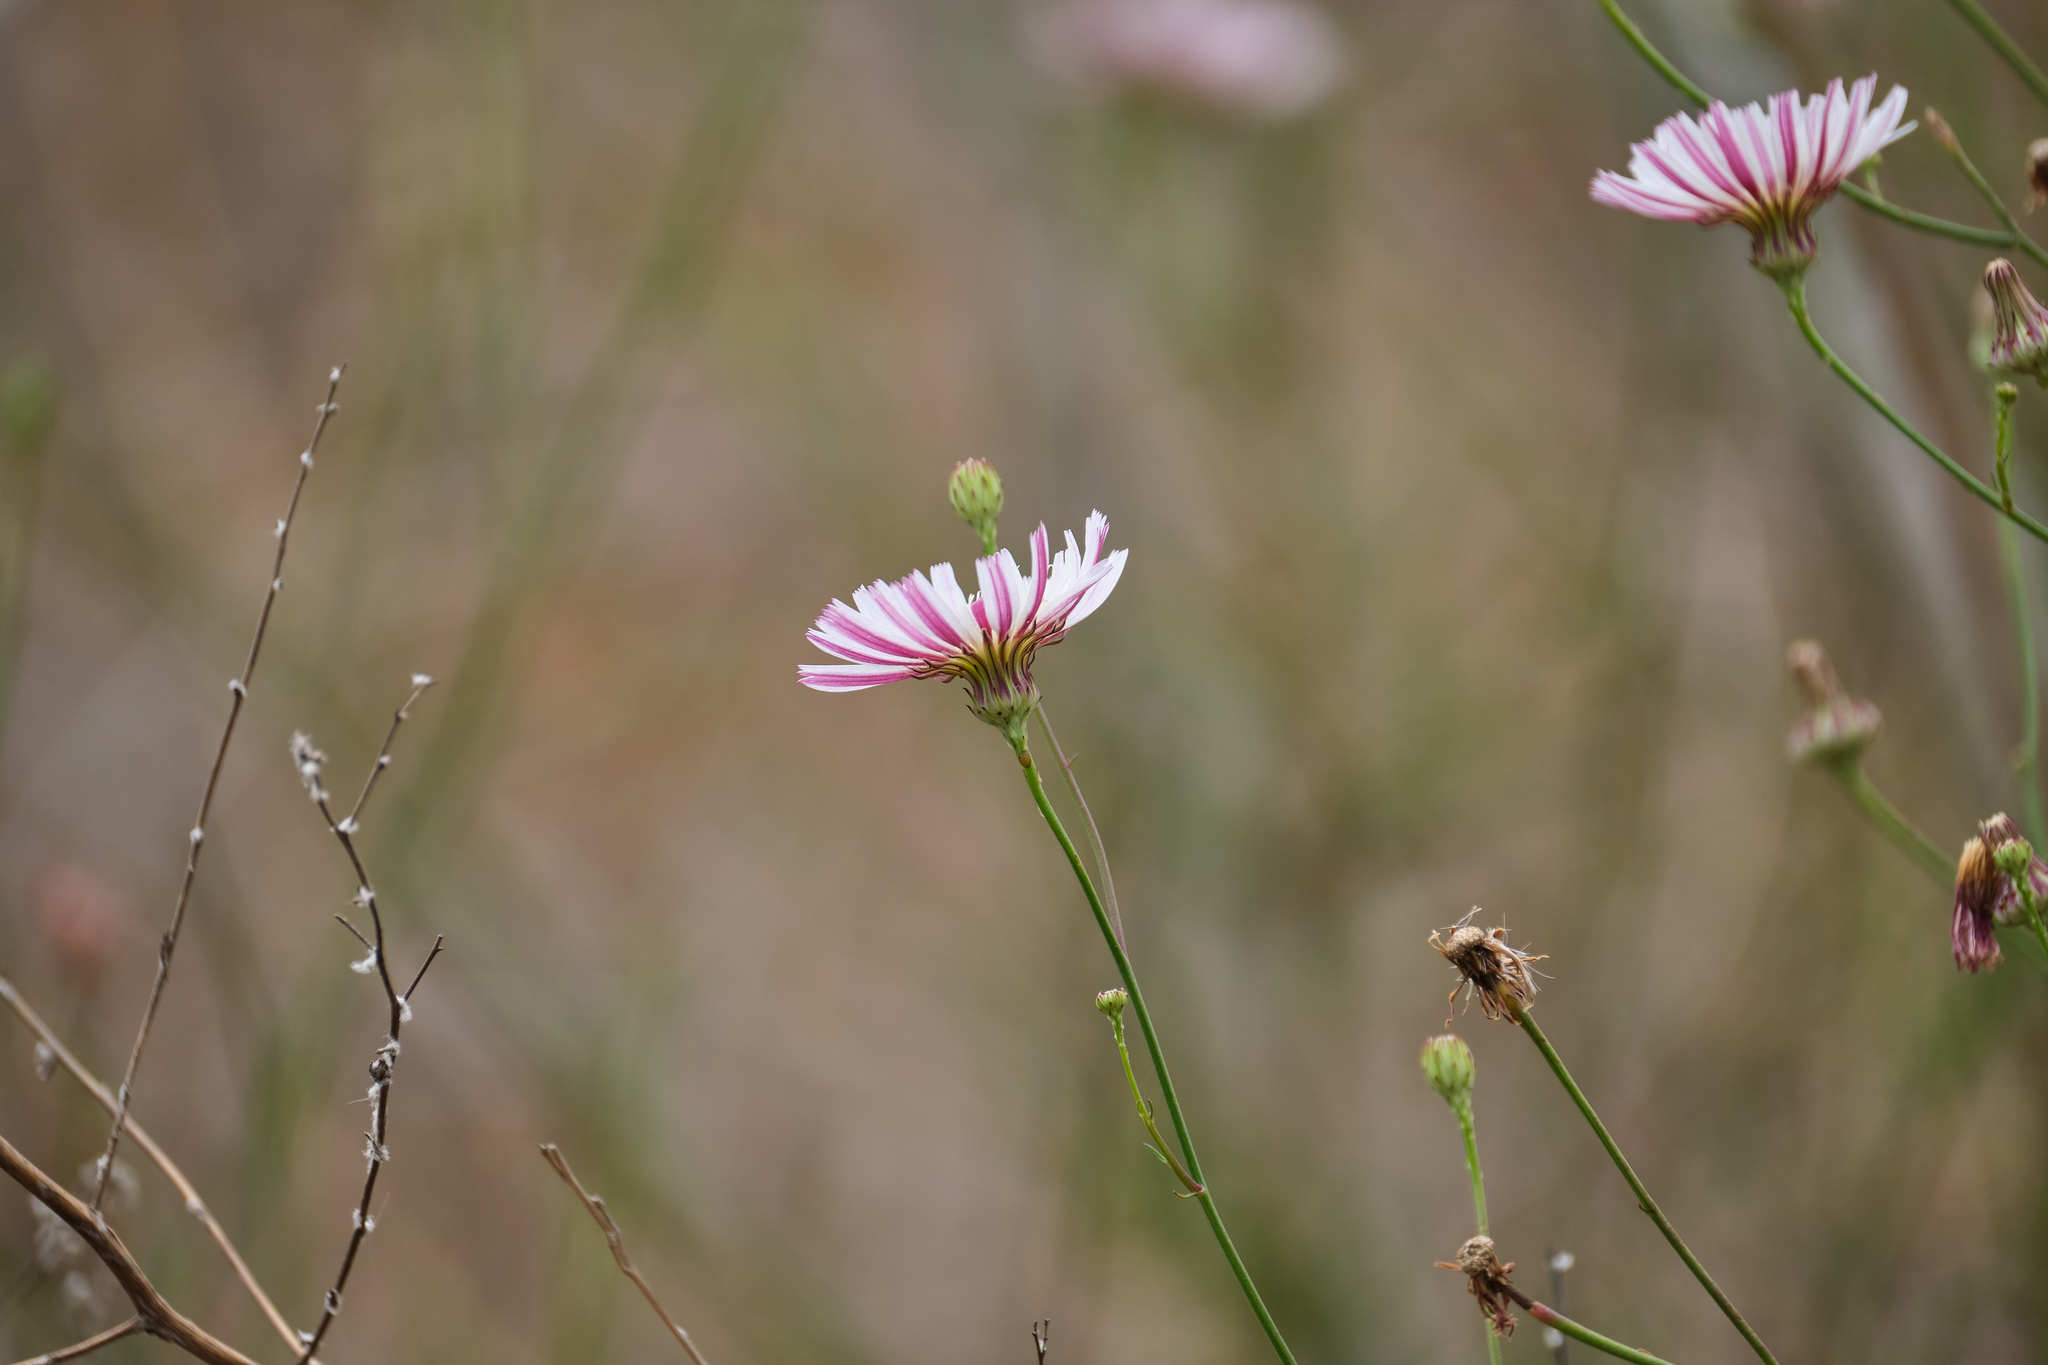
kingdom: Plantae
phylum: Tracheophyta
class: Magnoliopsida
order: Asterales
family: Asteraceae
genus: Malacothrix
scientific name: Malacothrix saxatilis
